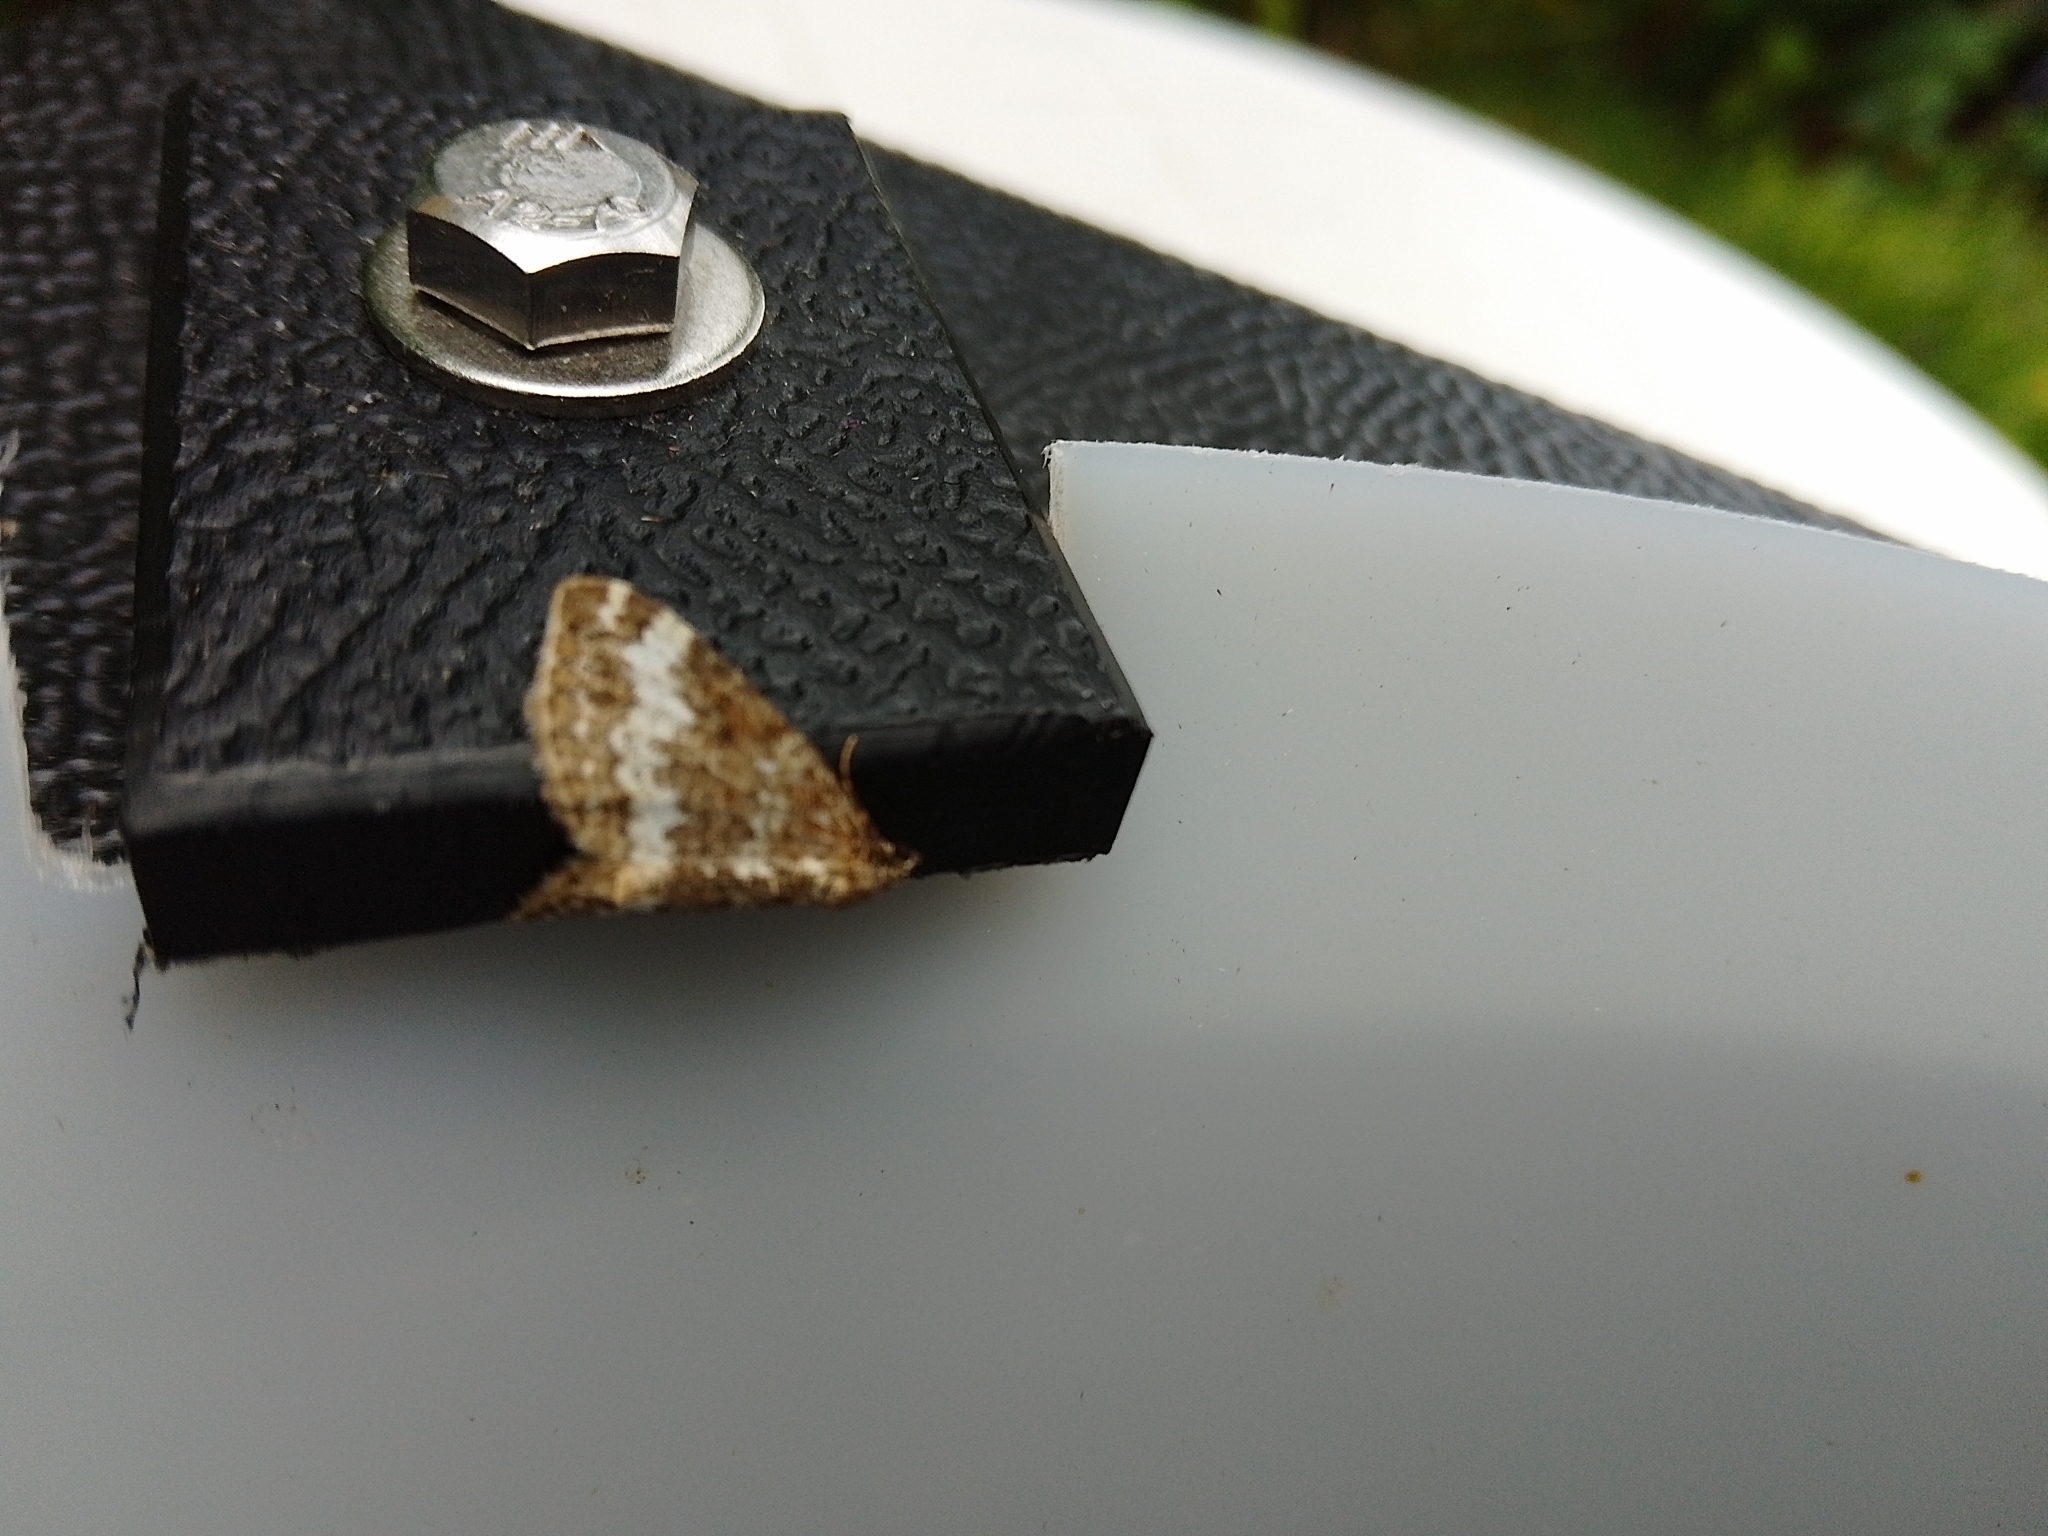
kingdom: Animalia
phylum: Arthropoda
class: Insecta
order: Lepidoptera
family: Geometridae
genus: Perizoma
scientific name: Perizoma alchemillata
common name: Small rivulet
